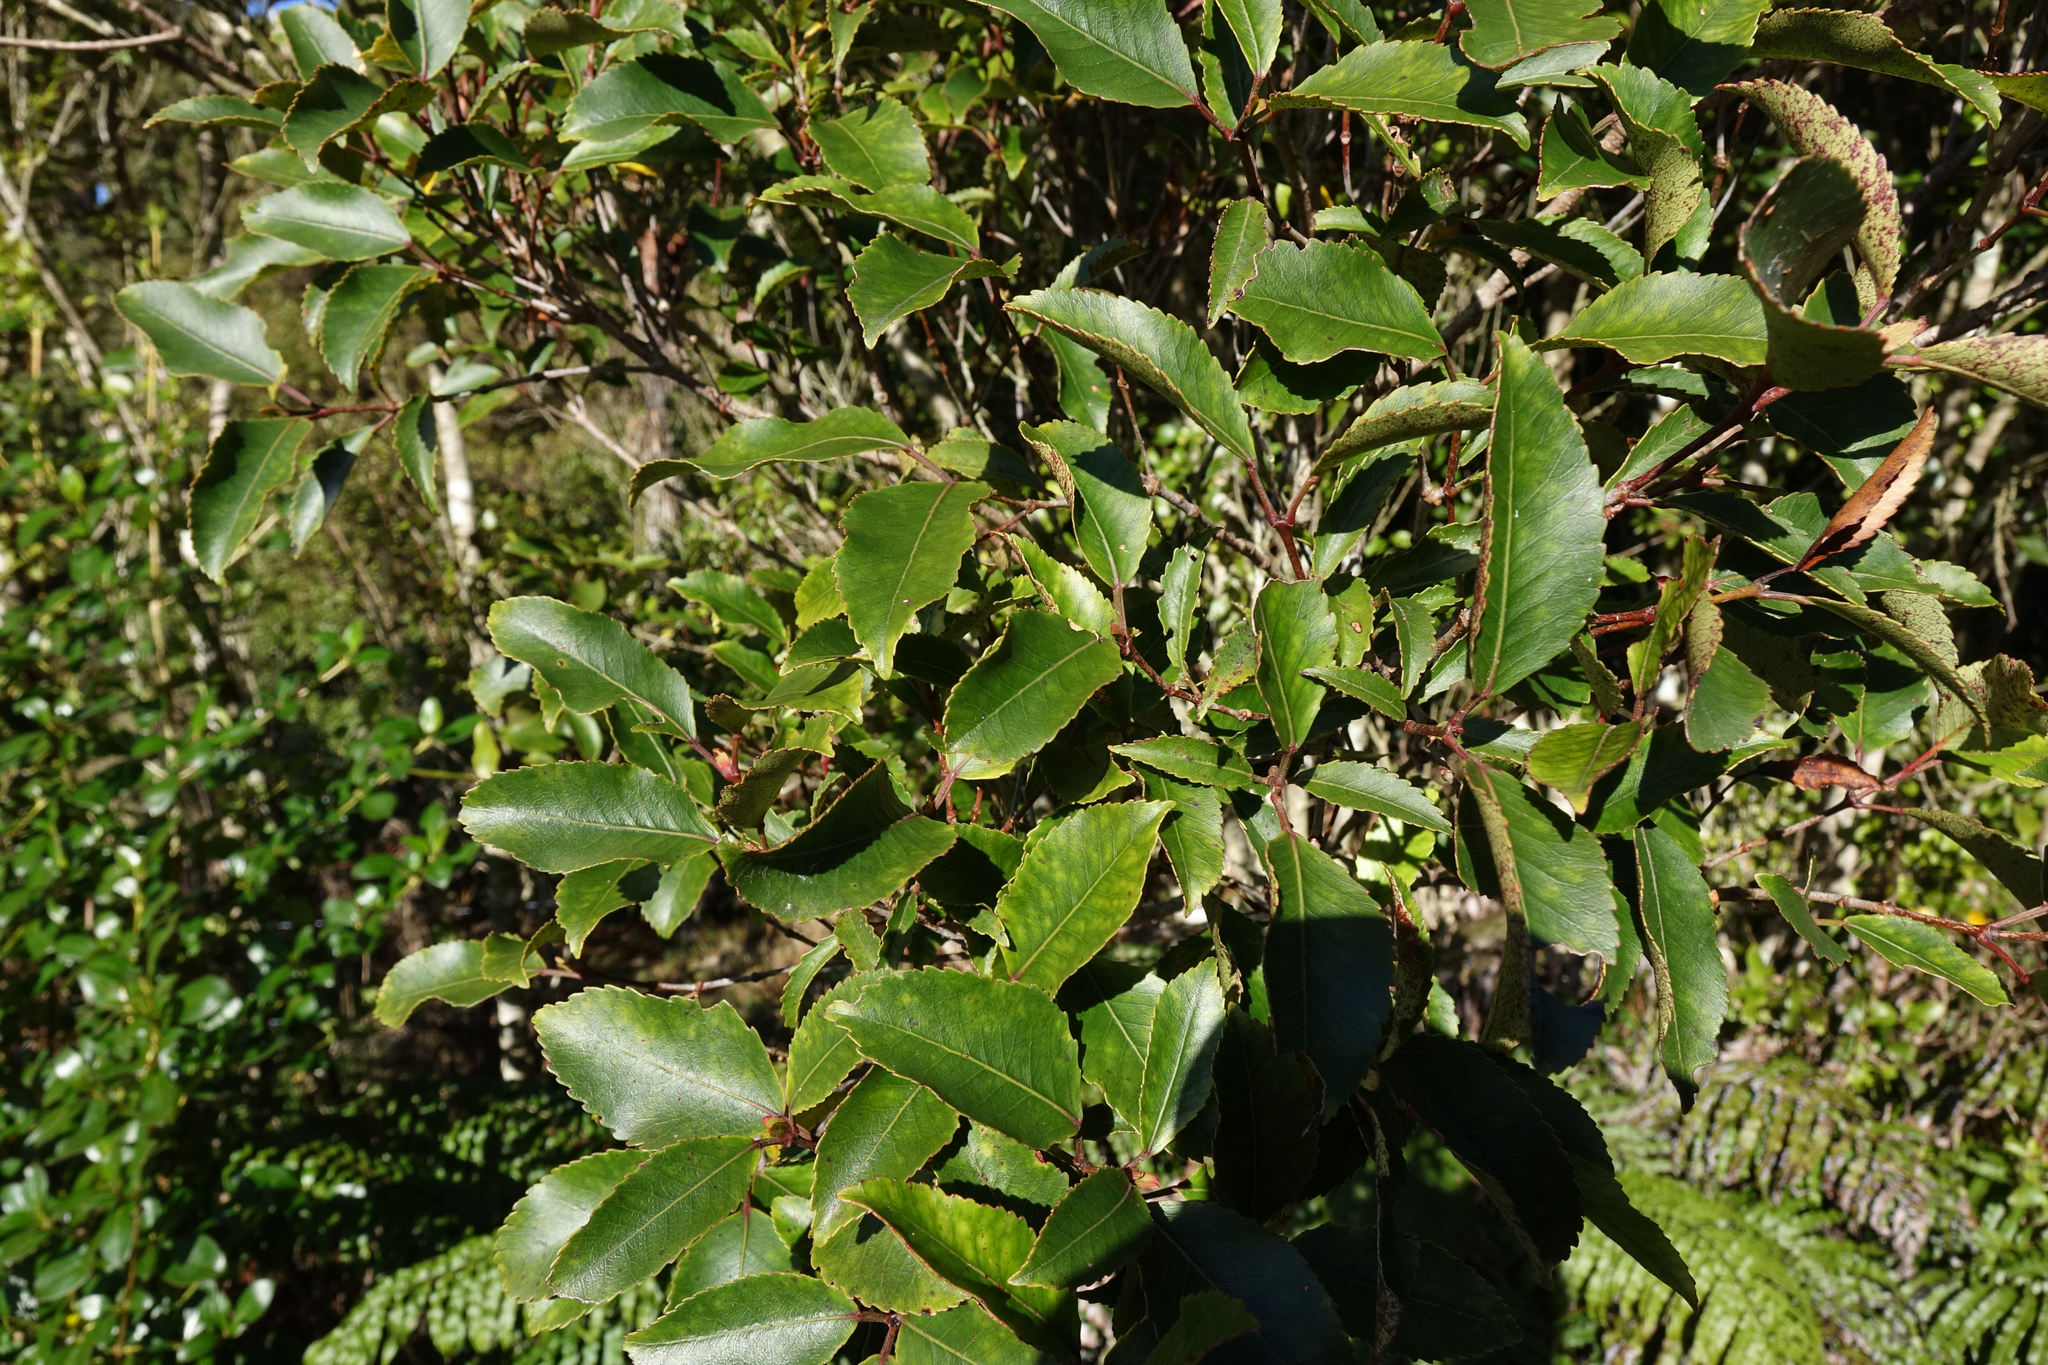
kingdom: Plantae
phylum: Tracheophyta
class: Magnoliopsida
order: Oxalidales
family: Cunoniaceae
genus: Pterophylla
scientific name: Pterophylla racemosa
